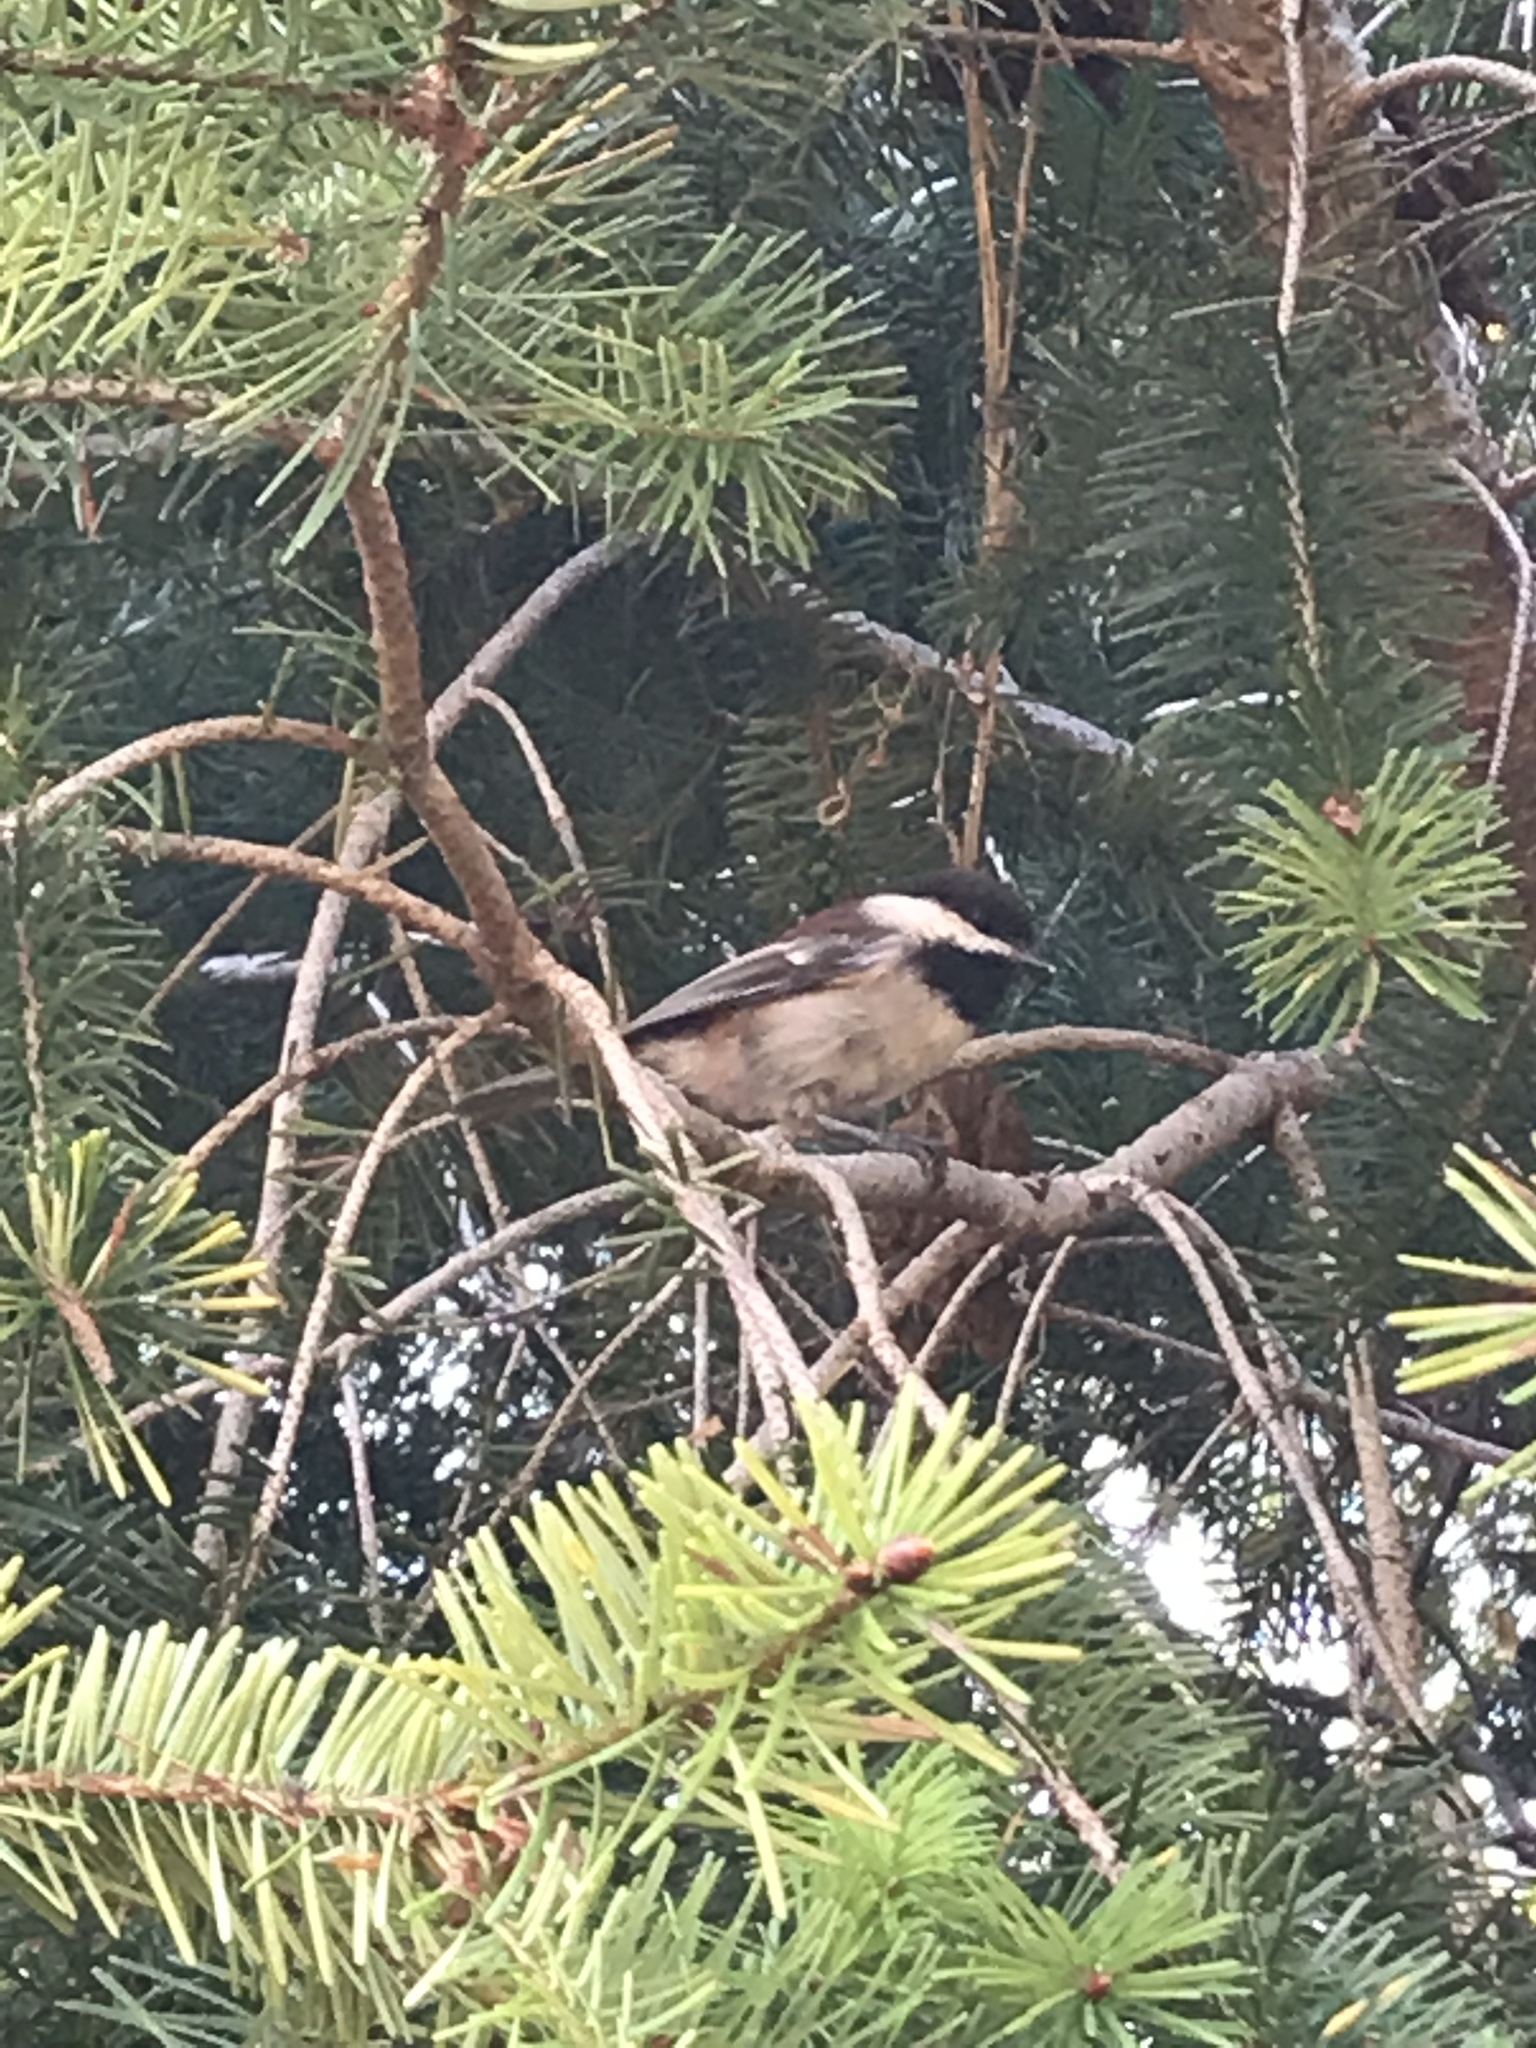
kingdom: Animalia
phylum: Chordata
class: Aves
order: Passeriformes
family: Paridae
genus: Poecile
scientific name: Poecile rufescens
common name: Chestnut-backed chickadee
